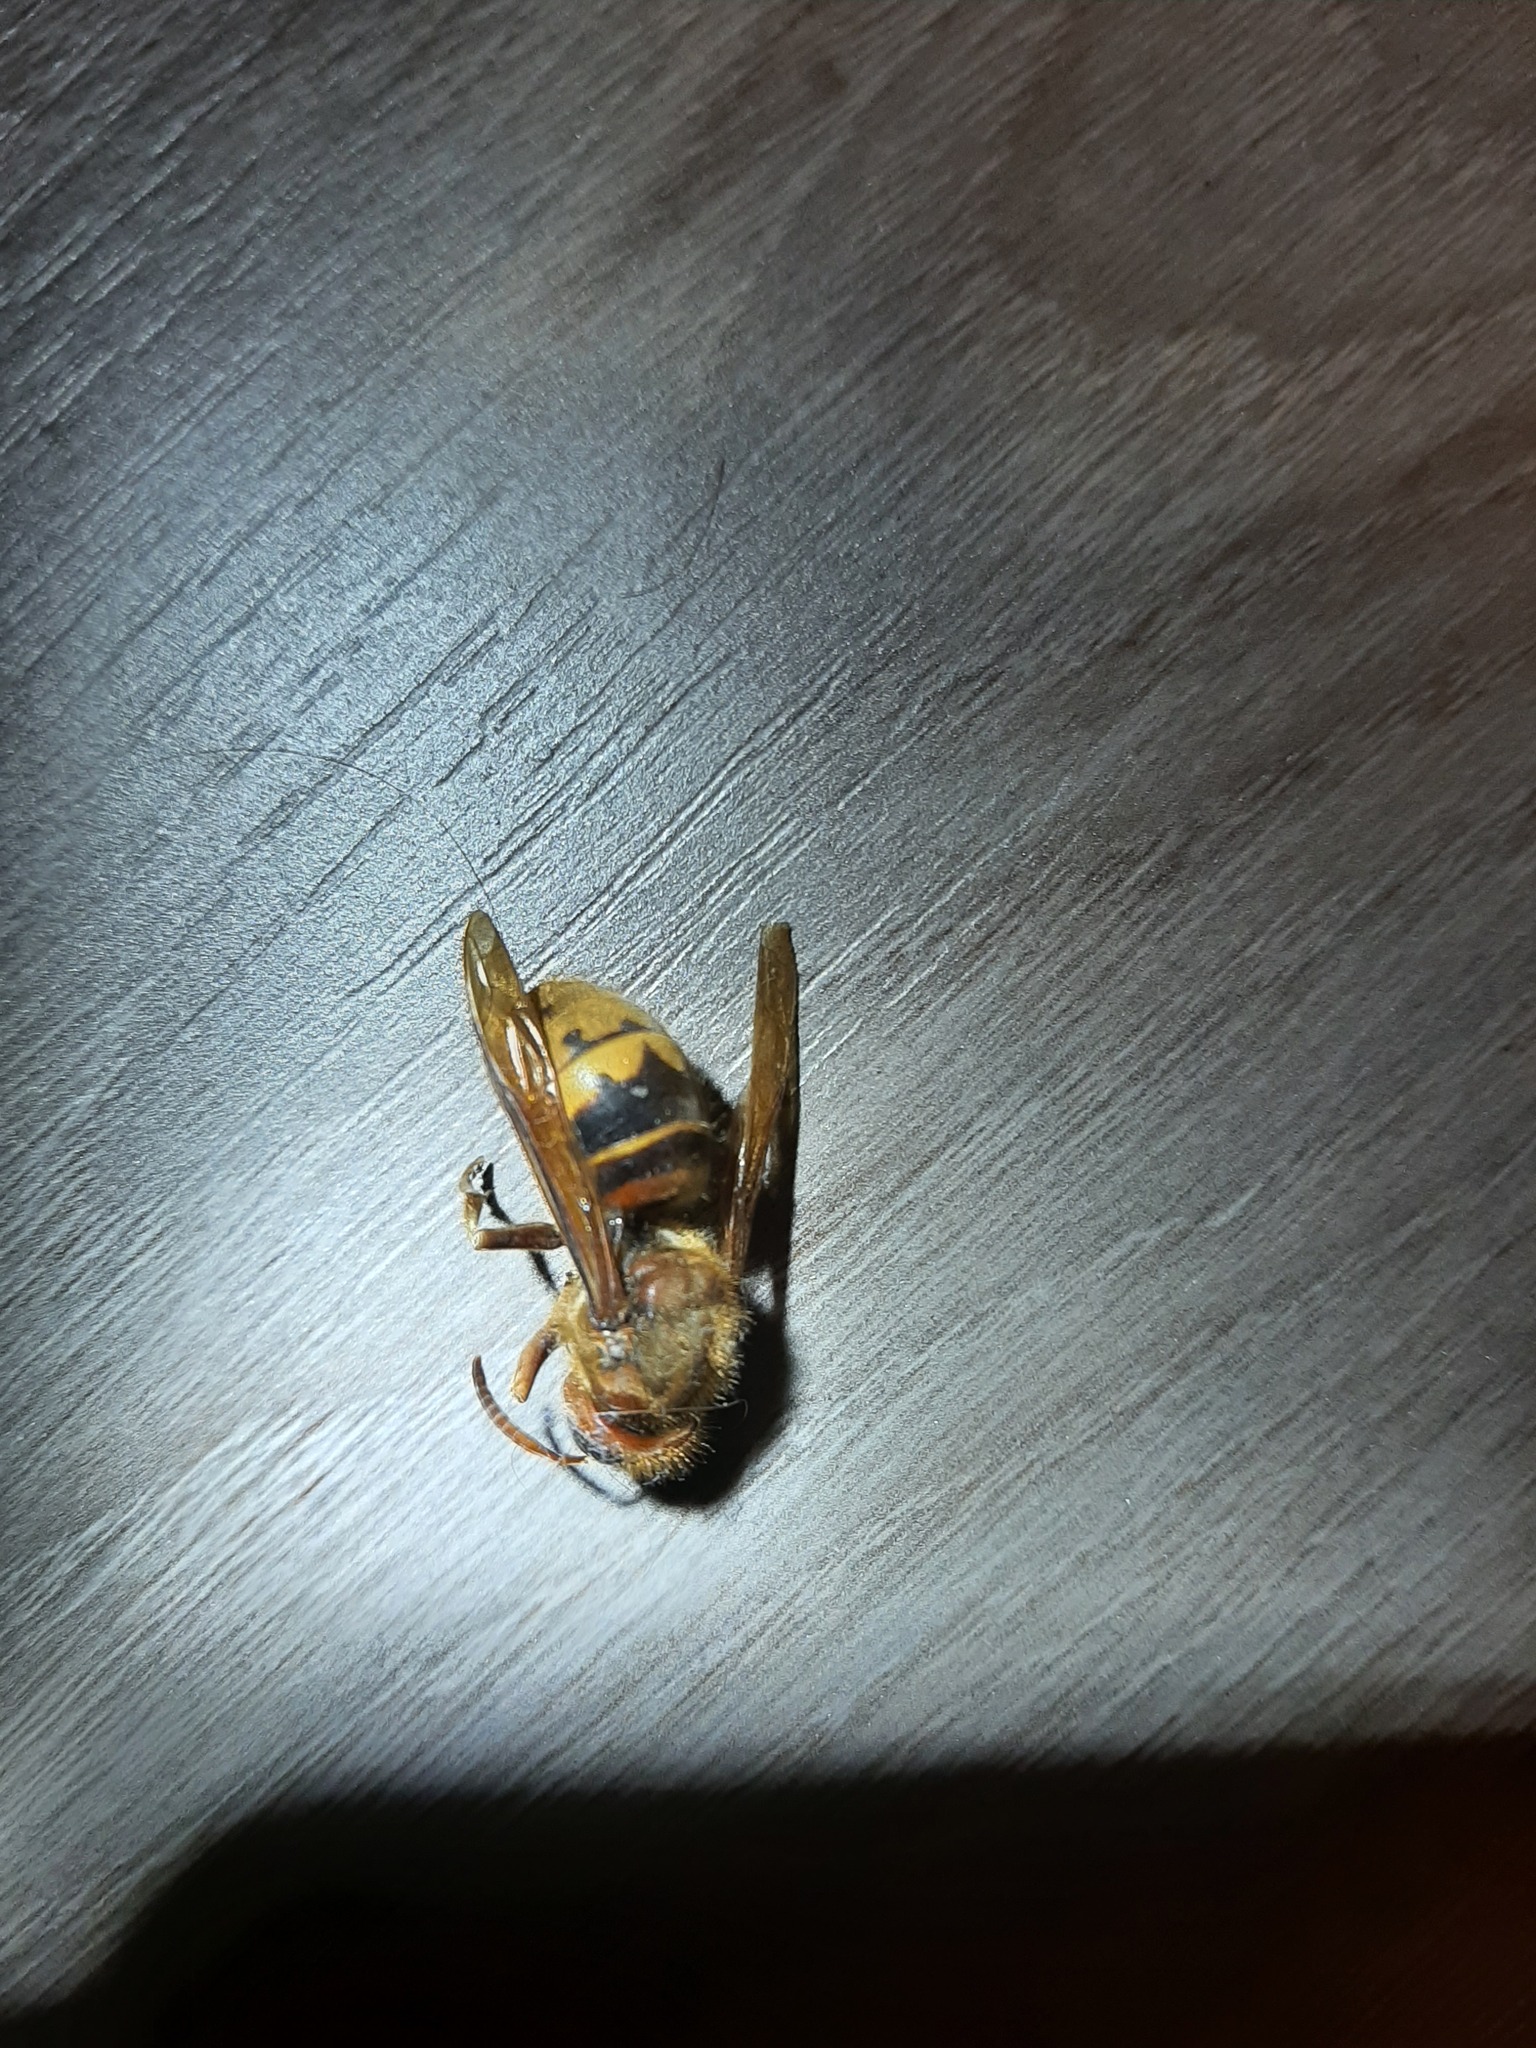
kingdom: Animalia
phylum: Arthropoda
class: Insecta
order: Hymenoptera
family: Vespidae
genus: Vespa
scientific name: Vespa crabro
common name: Hornet
